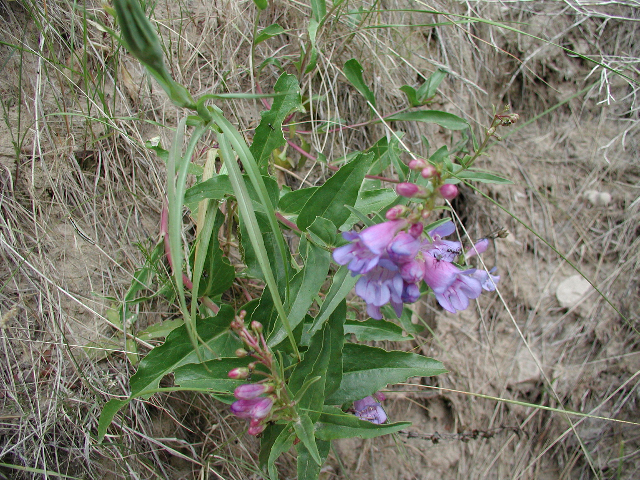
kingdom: Plantae
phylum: Tracheophyta
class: Magnoliopsida
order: Lamiales
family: Plantaginaceae
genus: Penstemon
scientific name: Penstemon glaber
